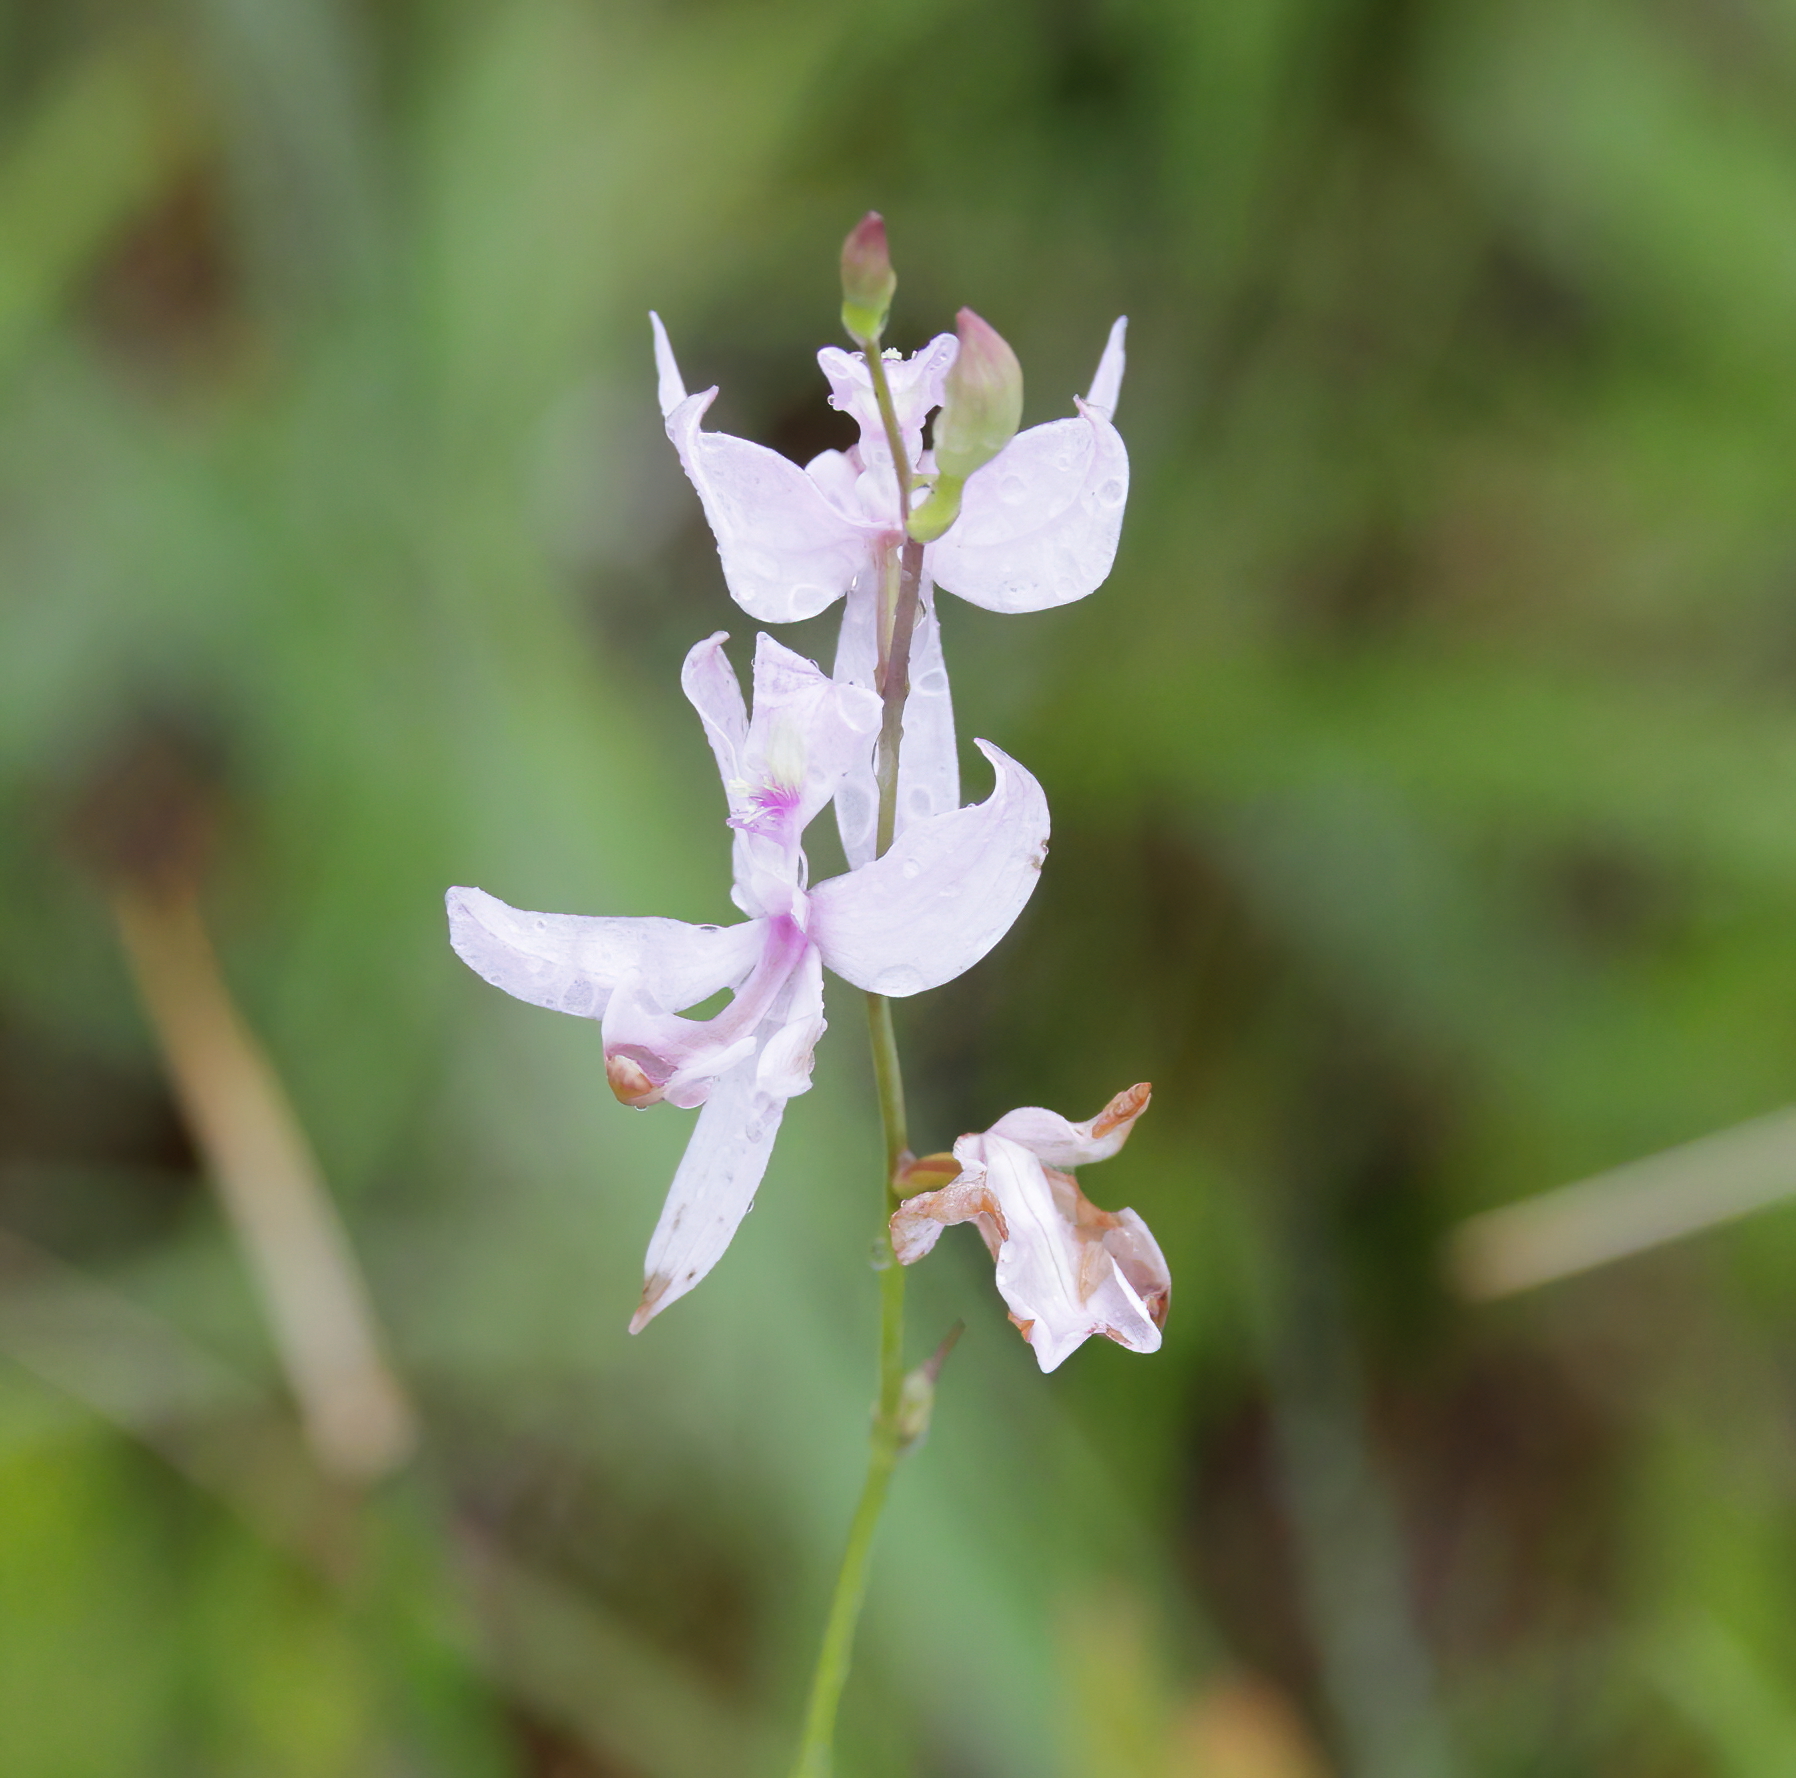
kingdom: Plantae
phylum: Tracheophyta
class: Liliopsida
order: Asparagales
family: Orchidaceae
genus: Calopogon
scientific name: Calopogon pallidus
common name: Pale grasspink
